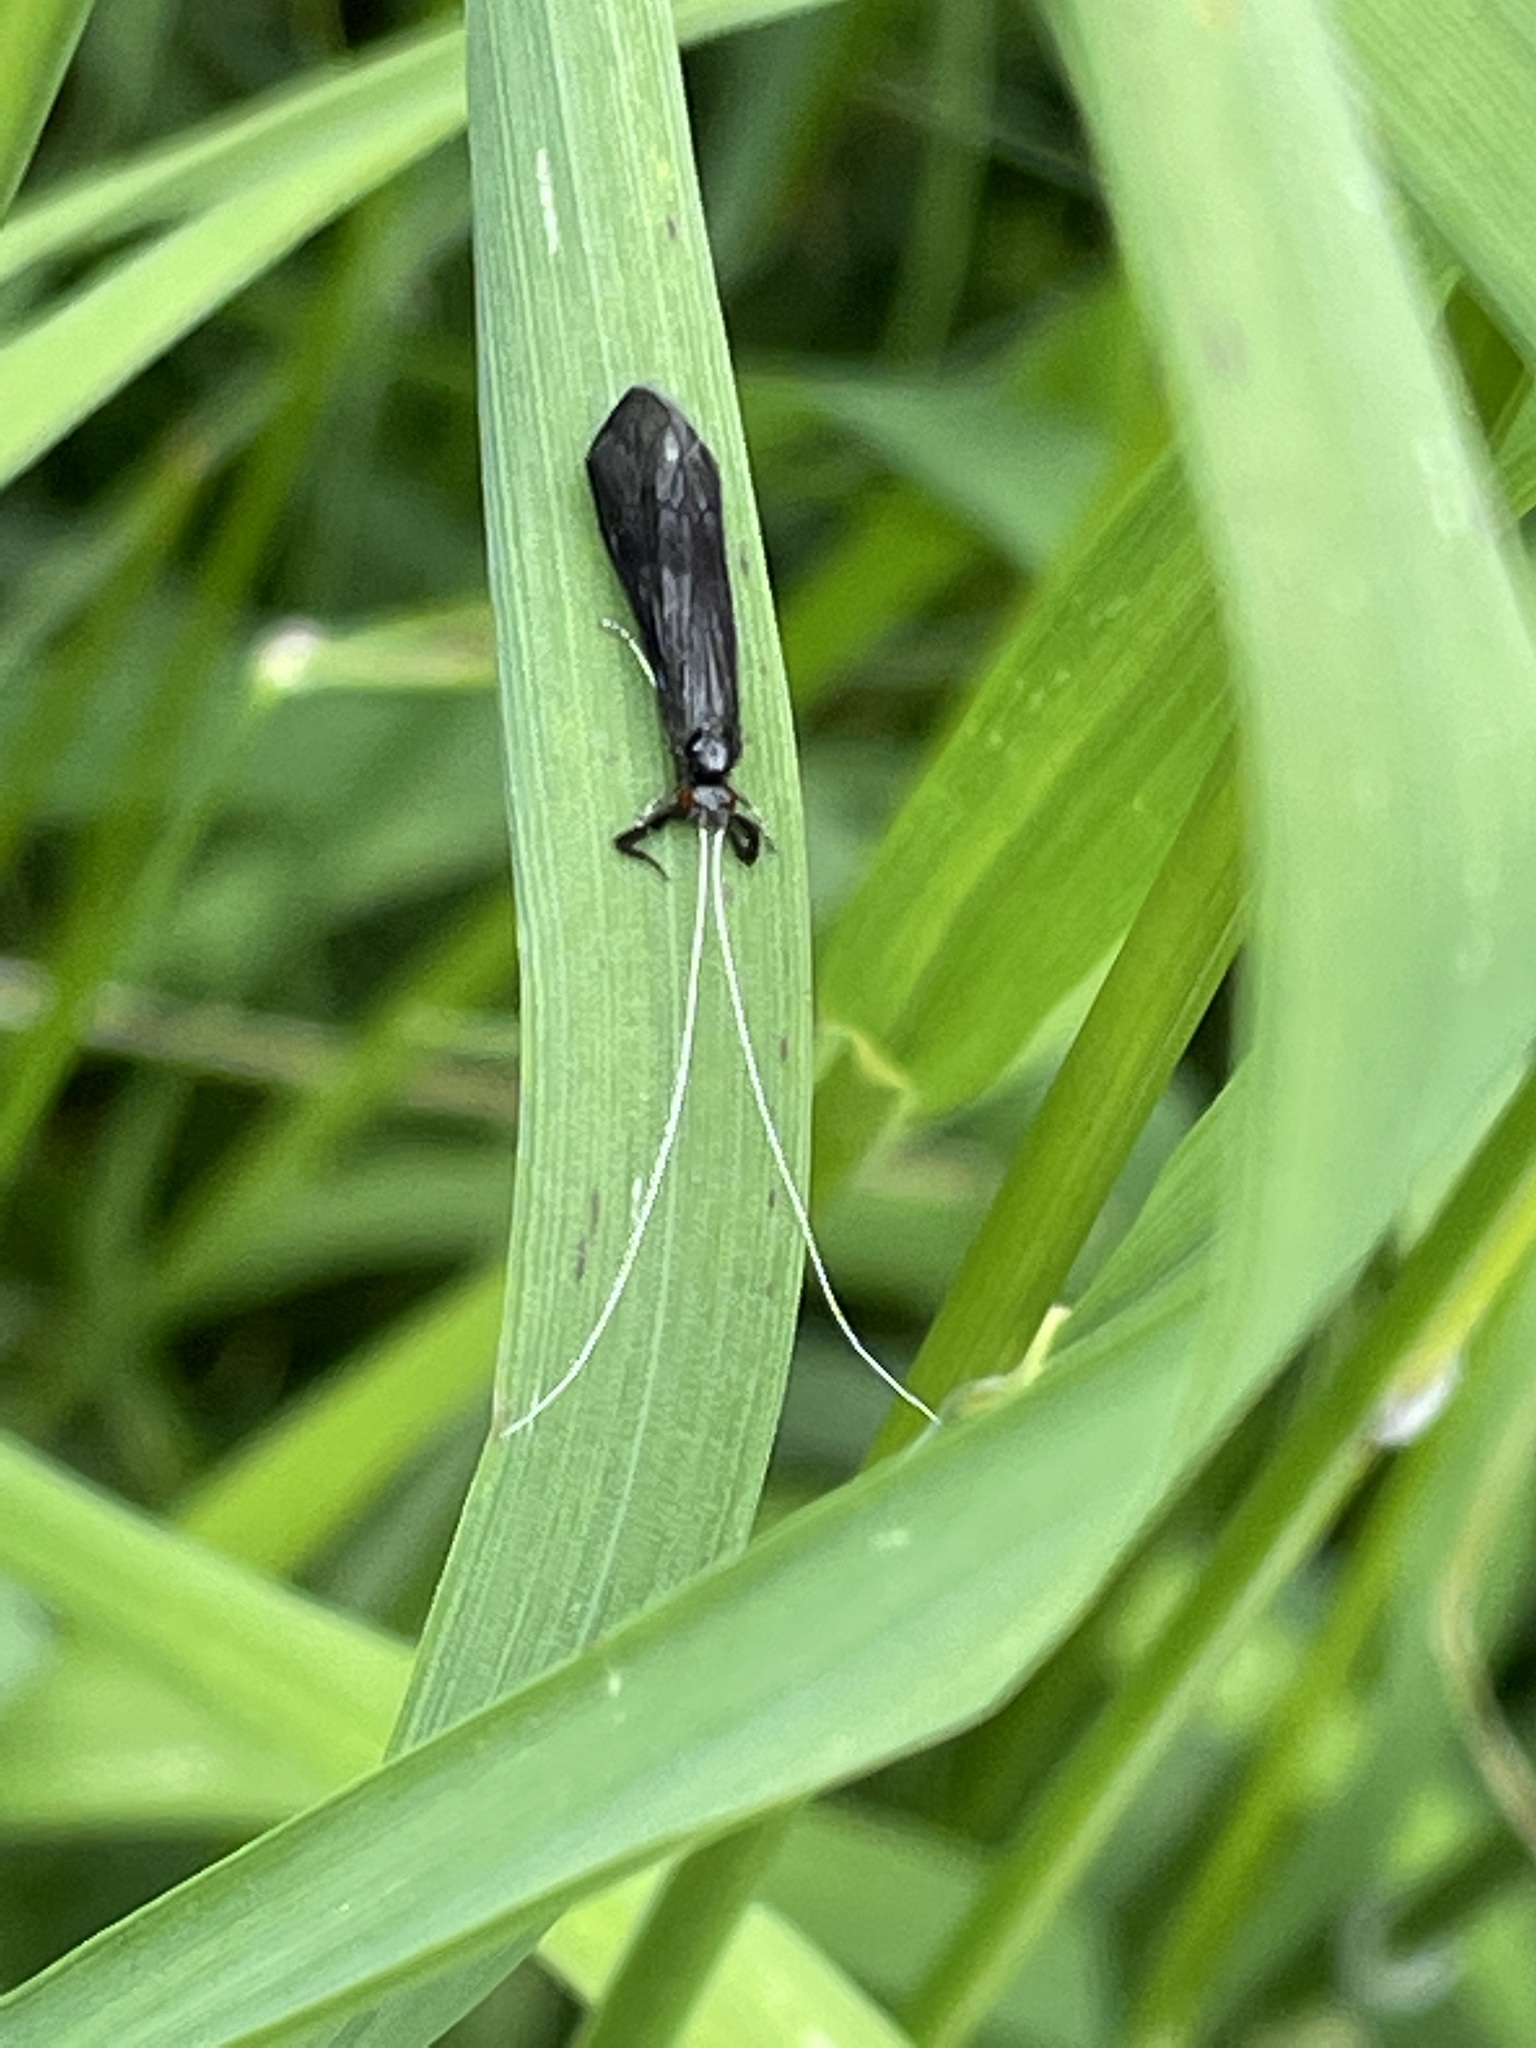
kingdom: Animalia
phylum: Arthropoda
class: Insecta
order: Trichoptera
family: Leptoceridae
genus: Mystacides
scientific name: Mystacides azureus
